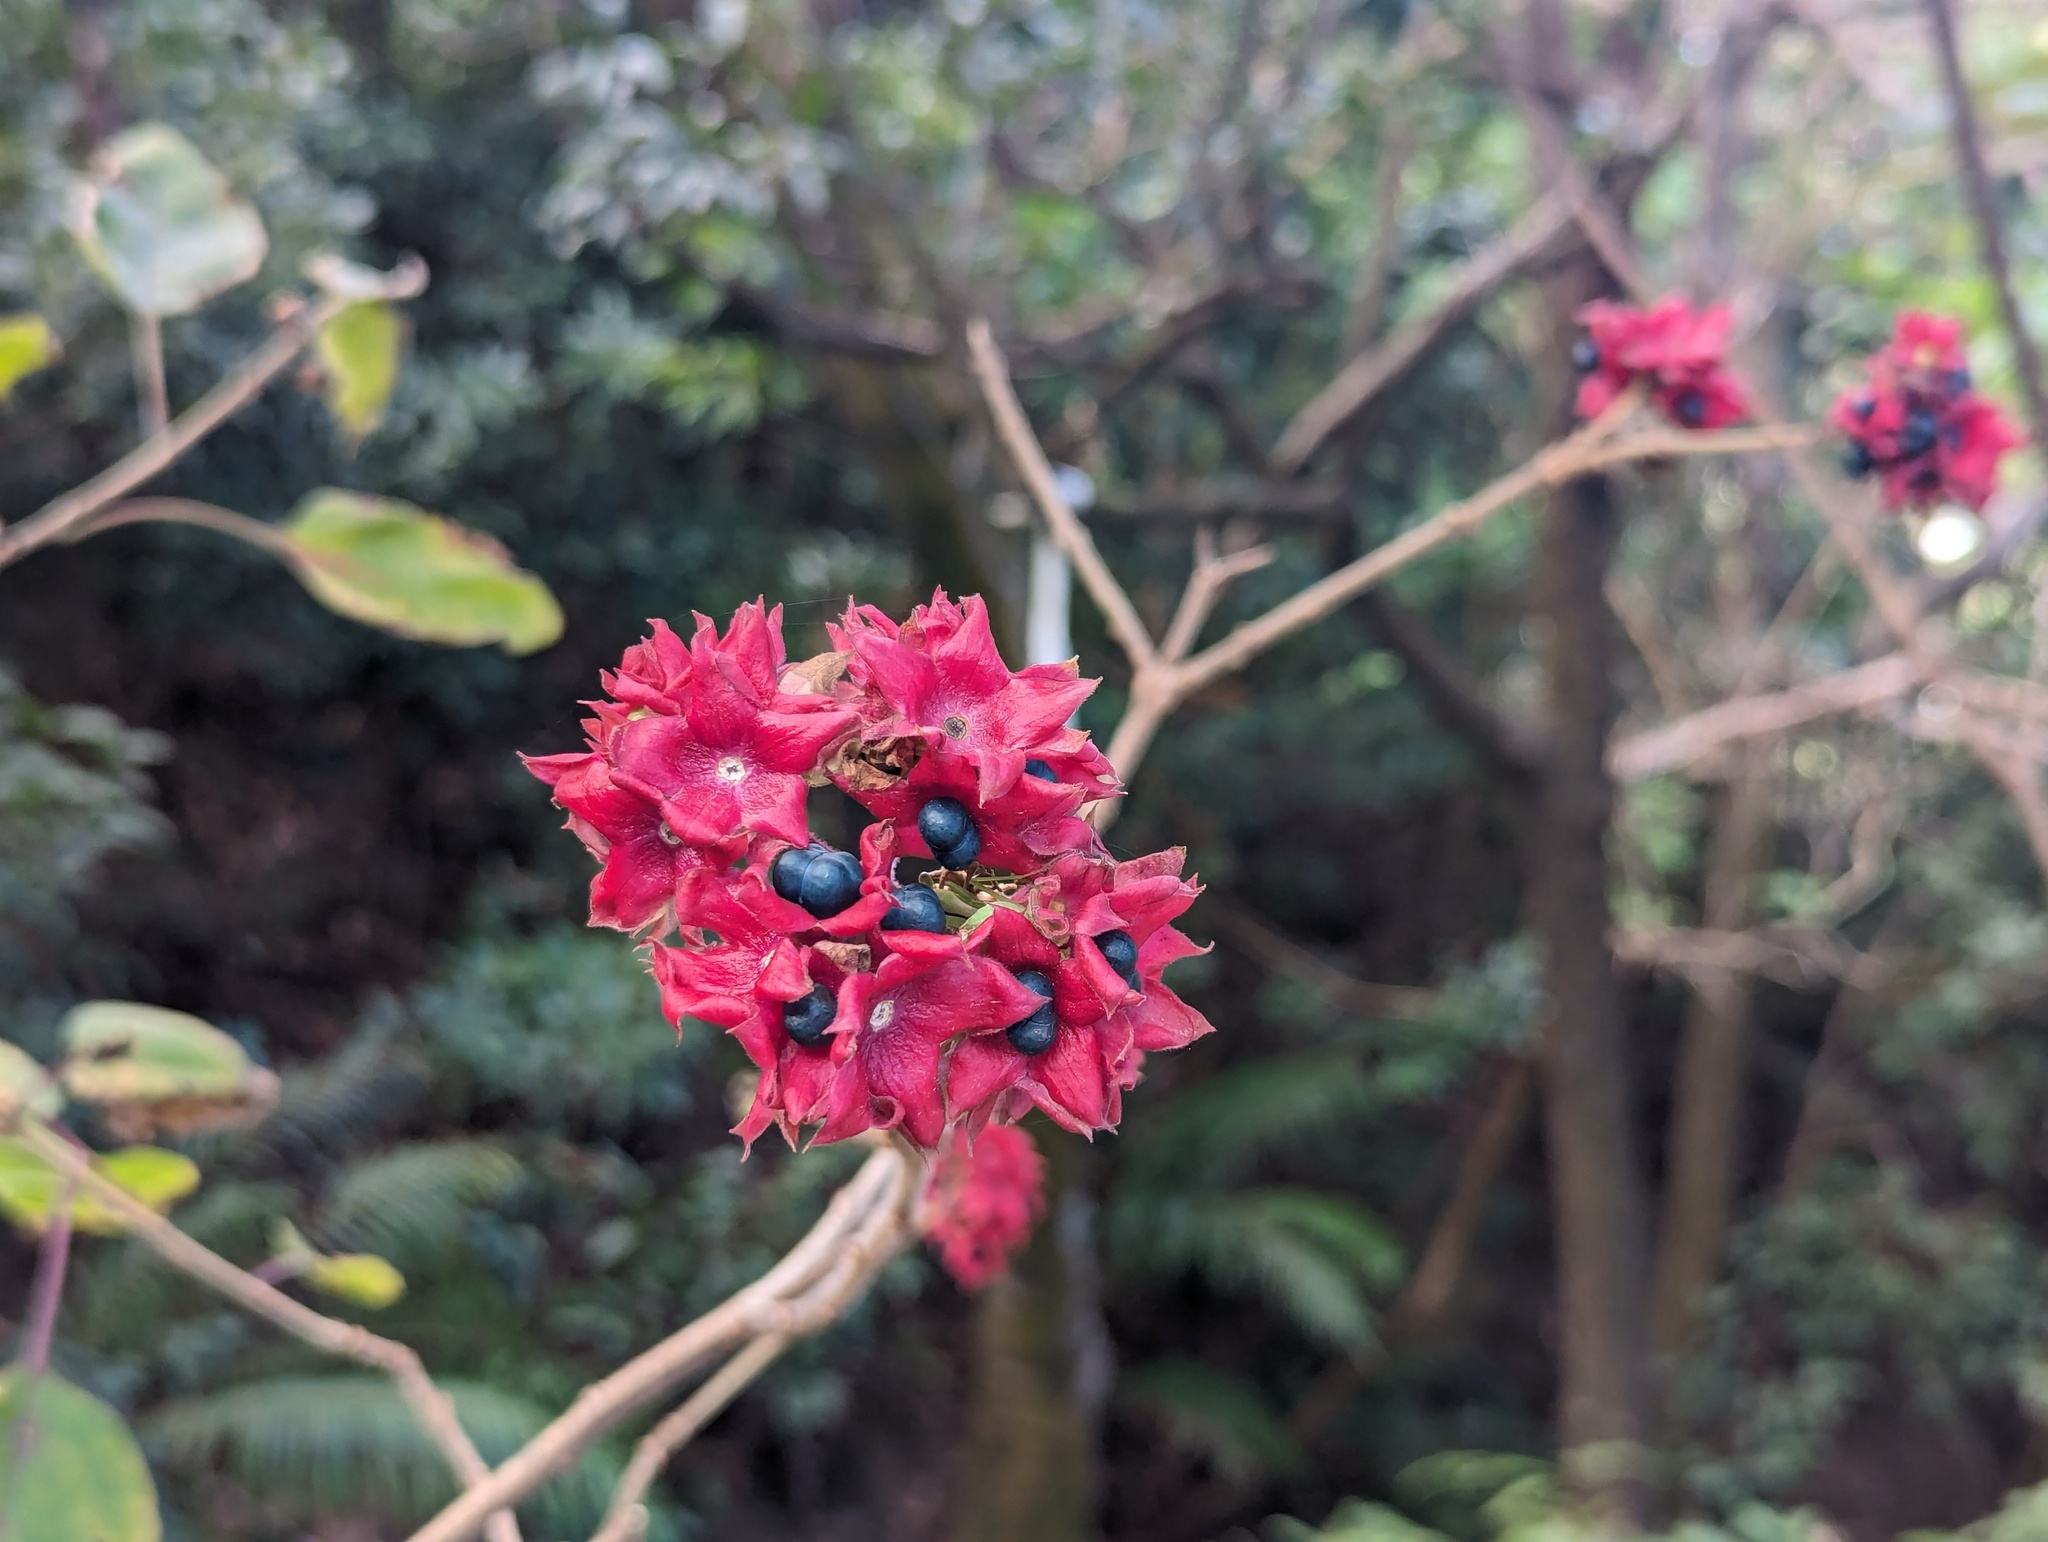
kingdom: Plantae
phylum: Tracheophyta
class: Magnoliopsida
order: Lamiales
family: Lamiaceae
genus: Clerodendrum
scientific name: Clerodendrum canescens
